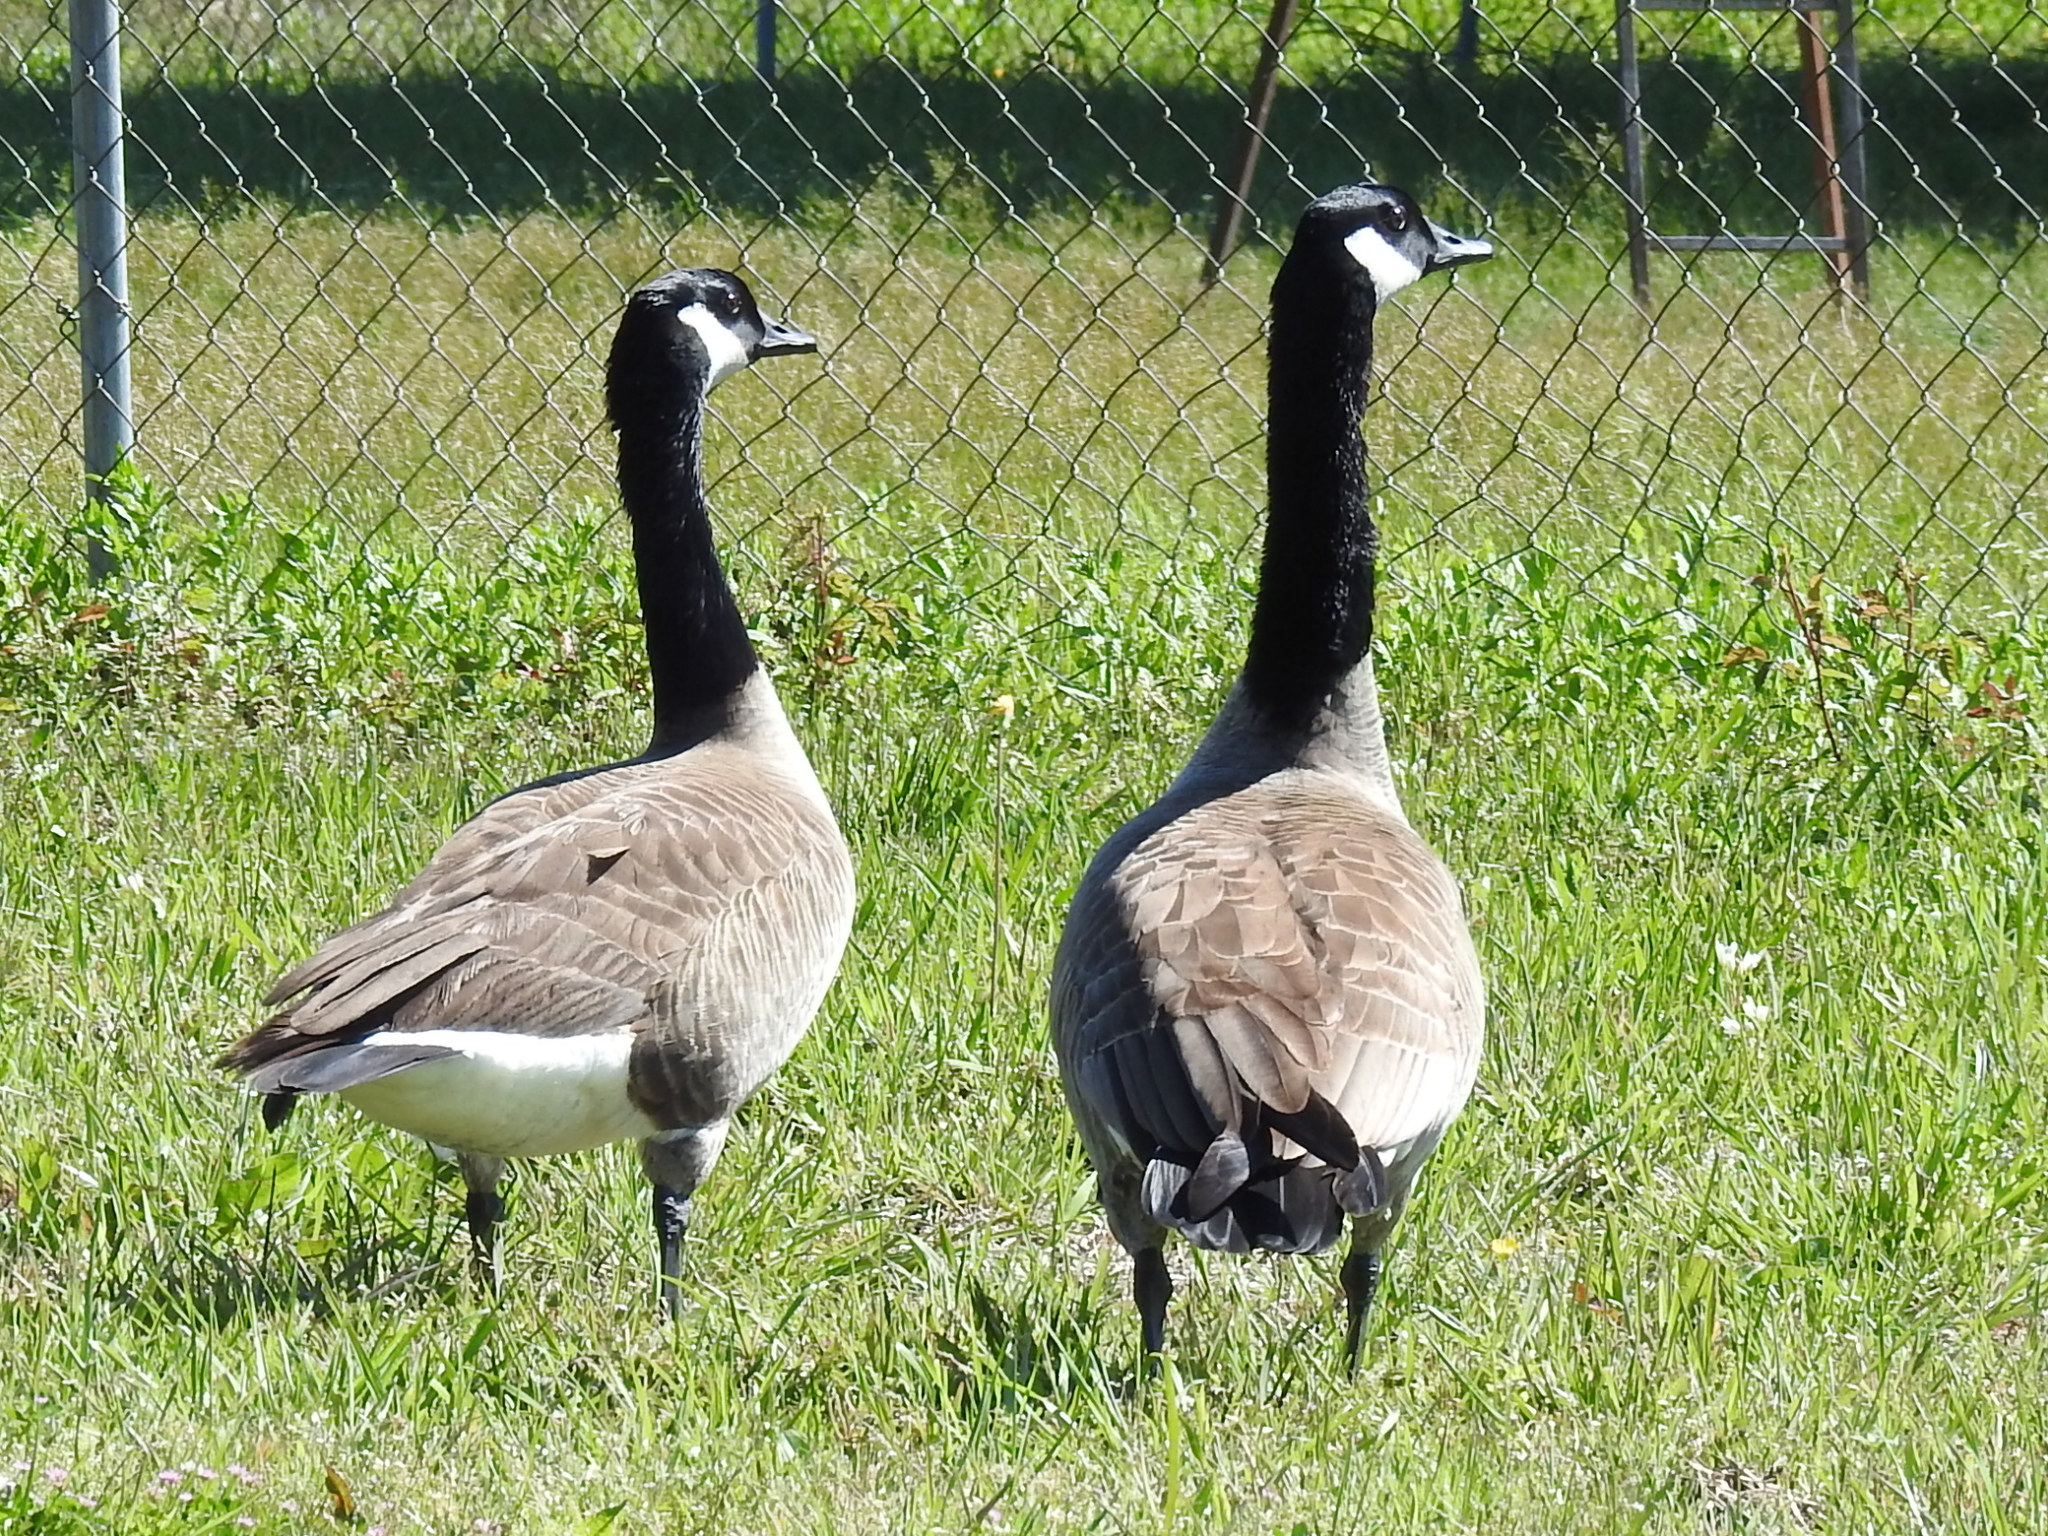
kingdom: Animalia
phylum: Chordata
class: Aves
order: Anseriformes
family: Anatidae
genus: Branta
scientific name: Branta canadensis
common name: Canada goose
